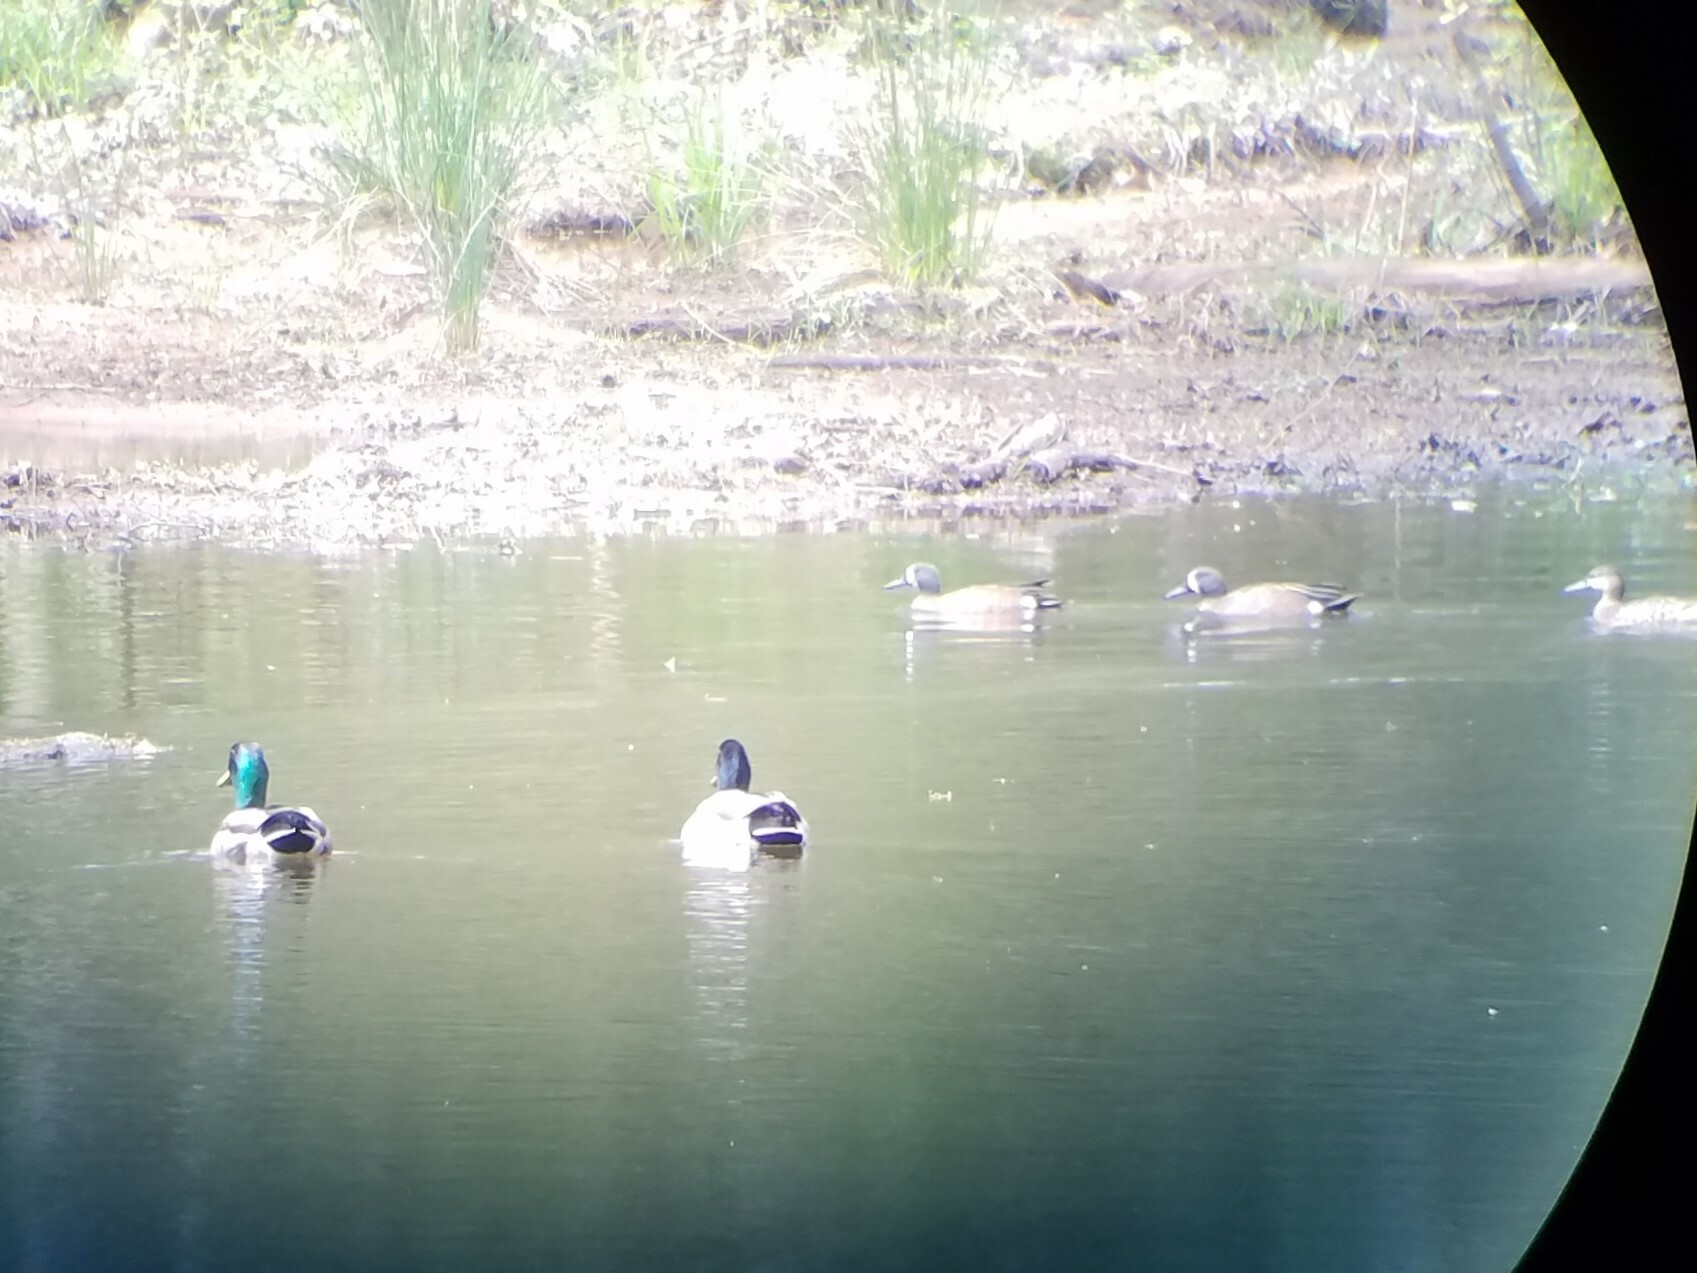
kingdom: Animalia
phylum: Chordata
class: Aves
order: Anseriformes
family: Anatidae
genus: Anas
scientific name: Anas platyrhynchos
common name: Mallard
